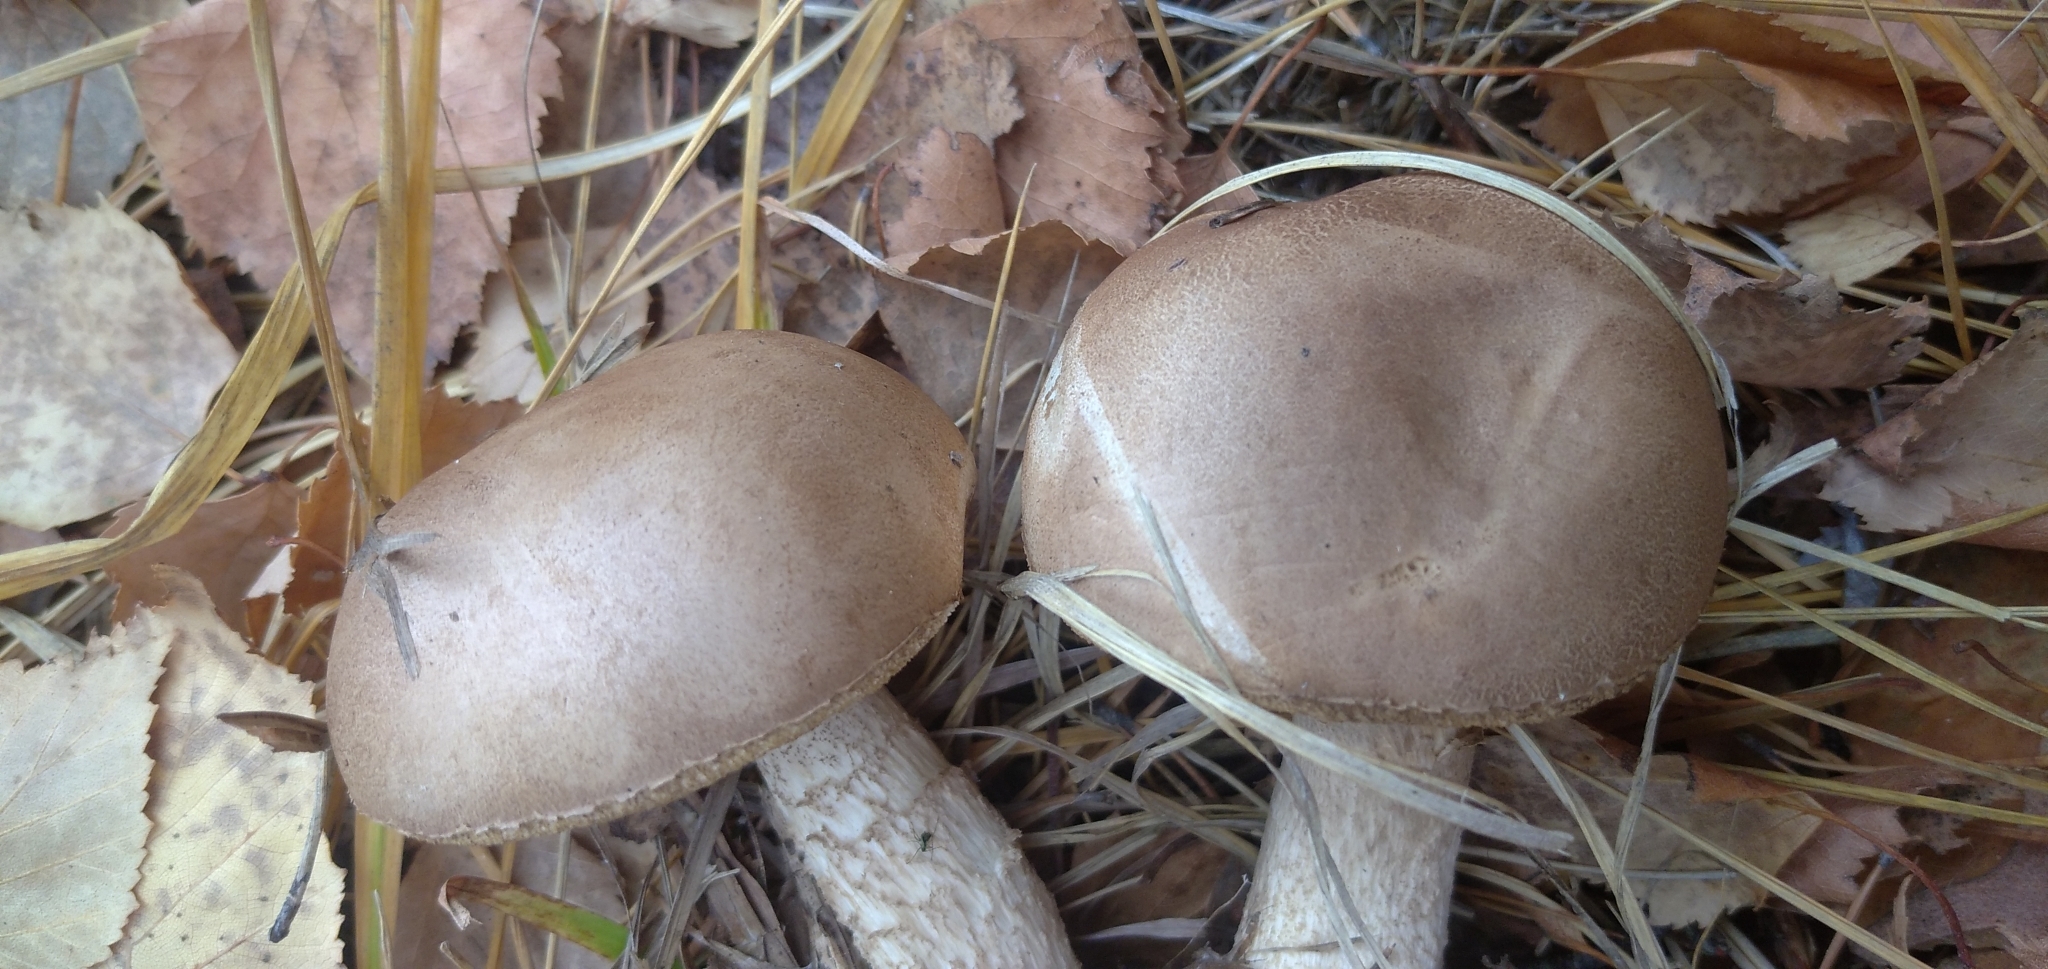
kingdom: Fungi
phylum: Basidiomycota
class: Agaricomycetes
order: Boletales
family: Boletaceae
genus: Leccinum
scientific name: Leccinum scabrum
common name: Blushing bolete
